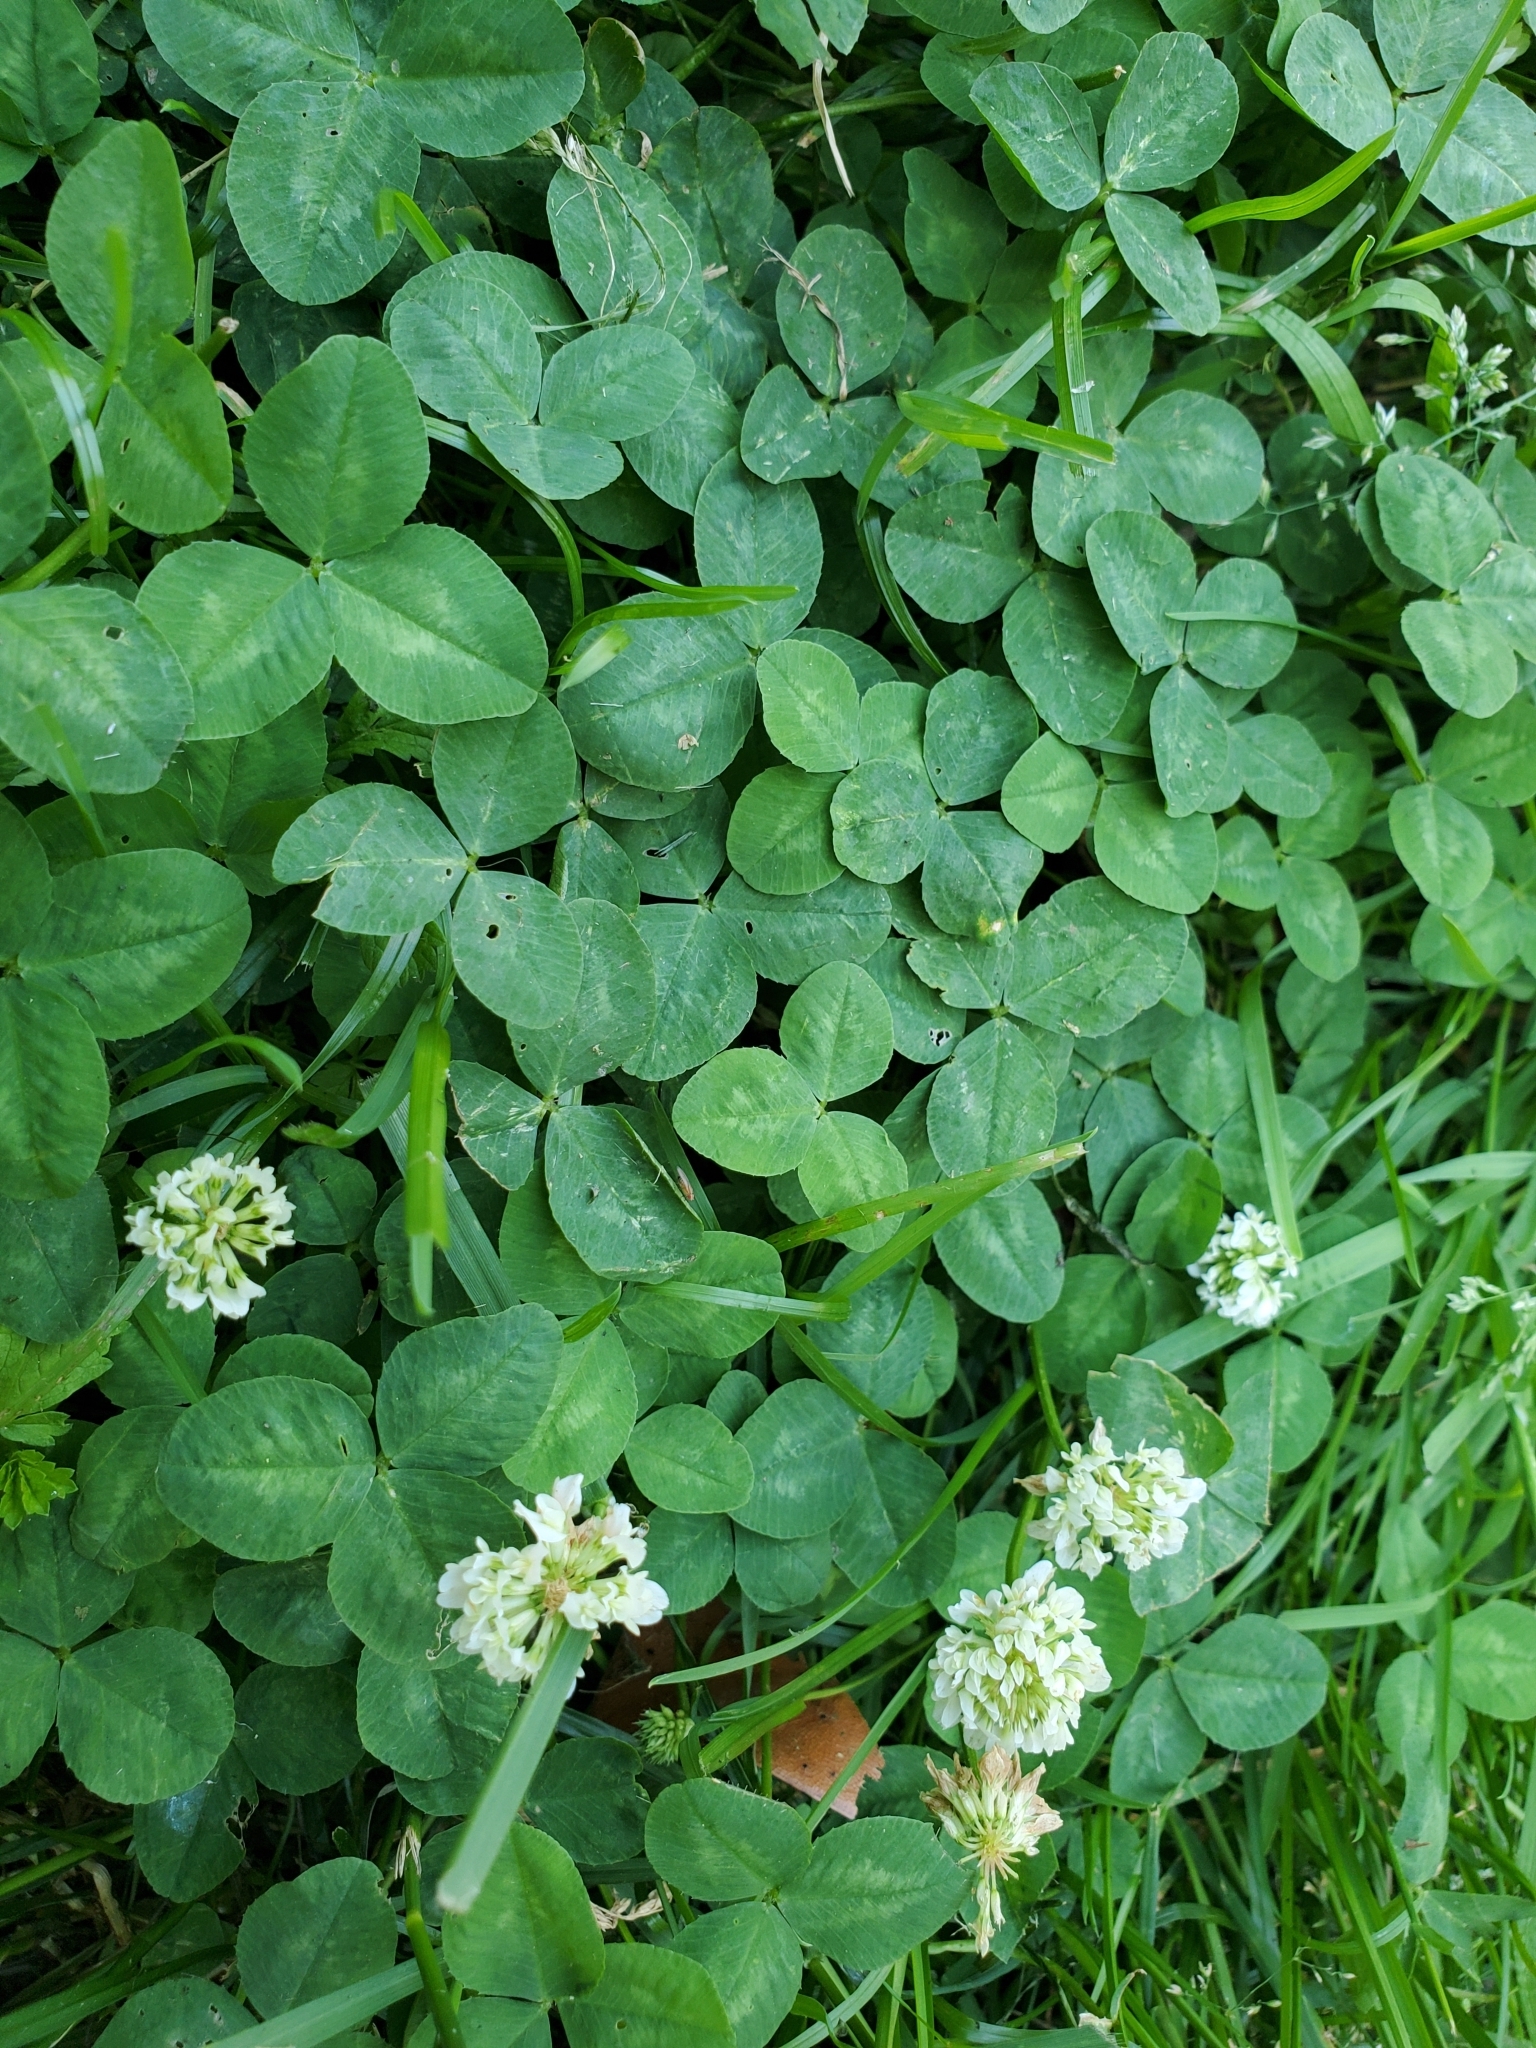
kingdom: Plantae
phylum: Tracheophyta
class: Magnoliopsida
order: Fabales
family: Fabaceae
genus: Trifolium
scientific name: Trifolium repens
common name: White clover
